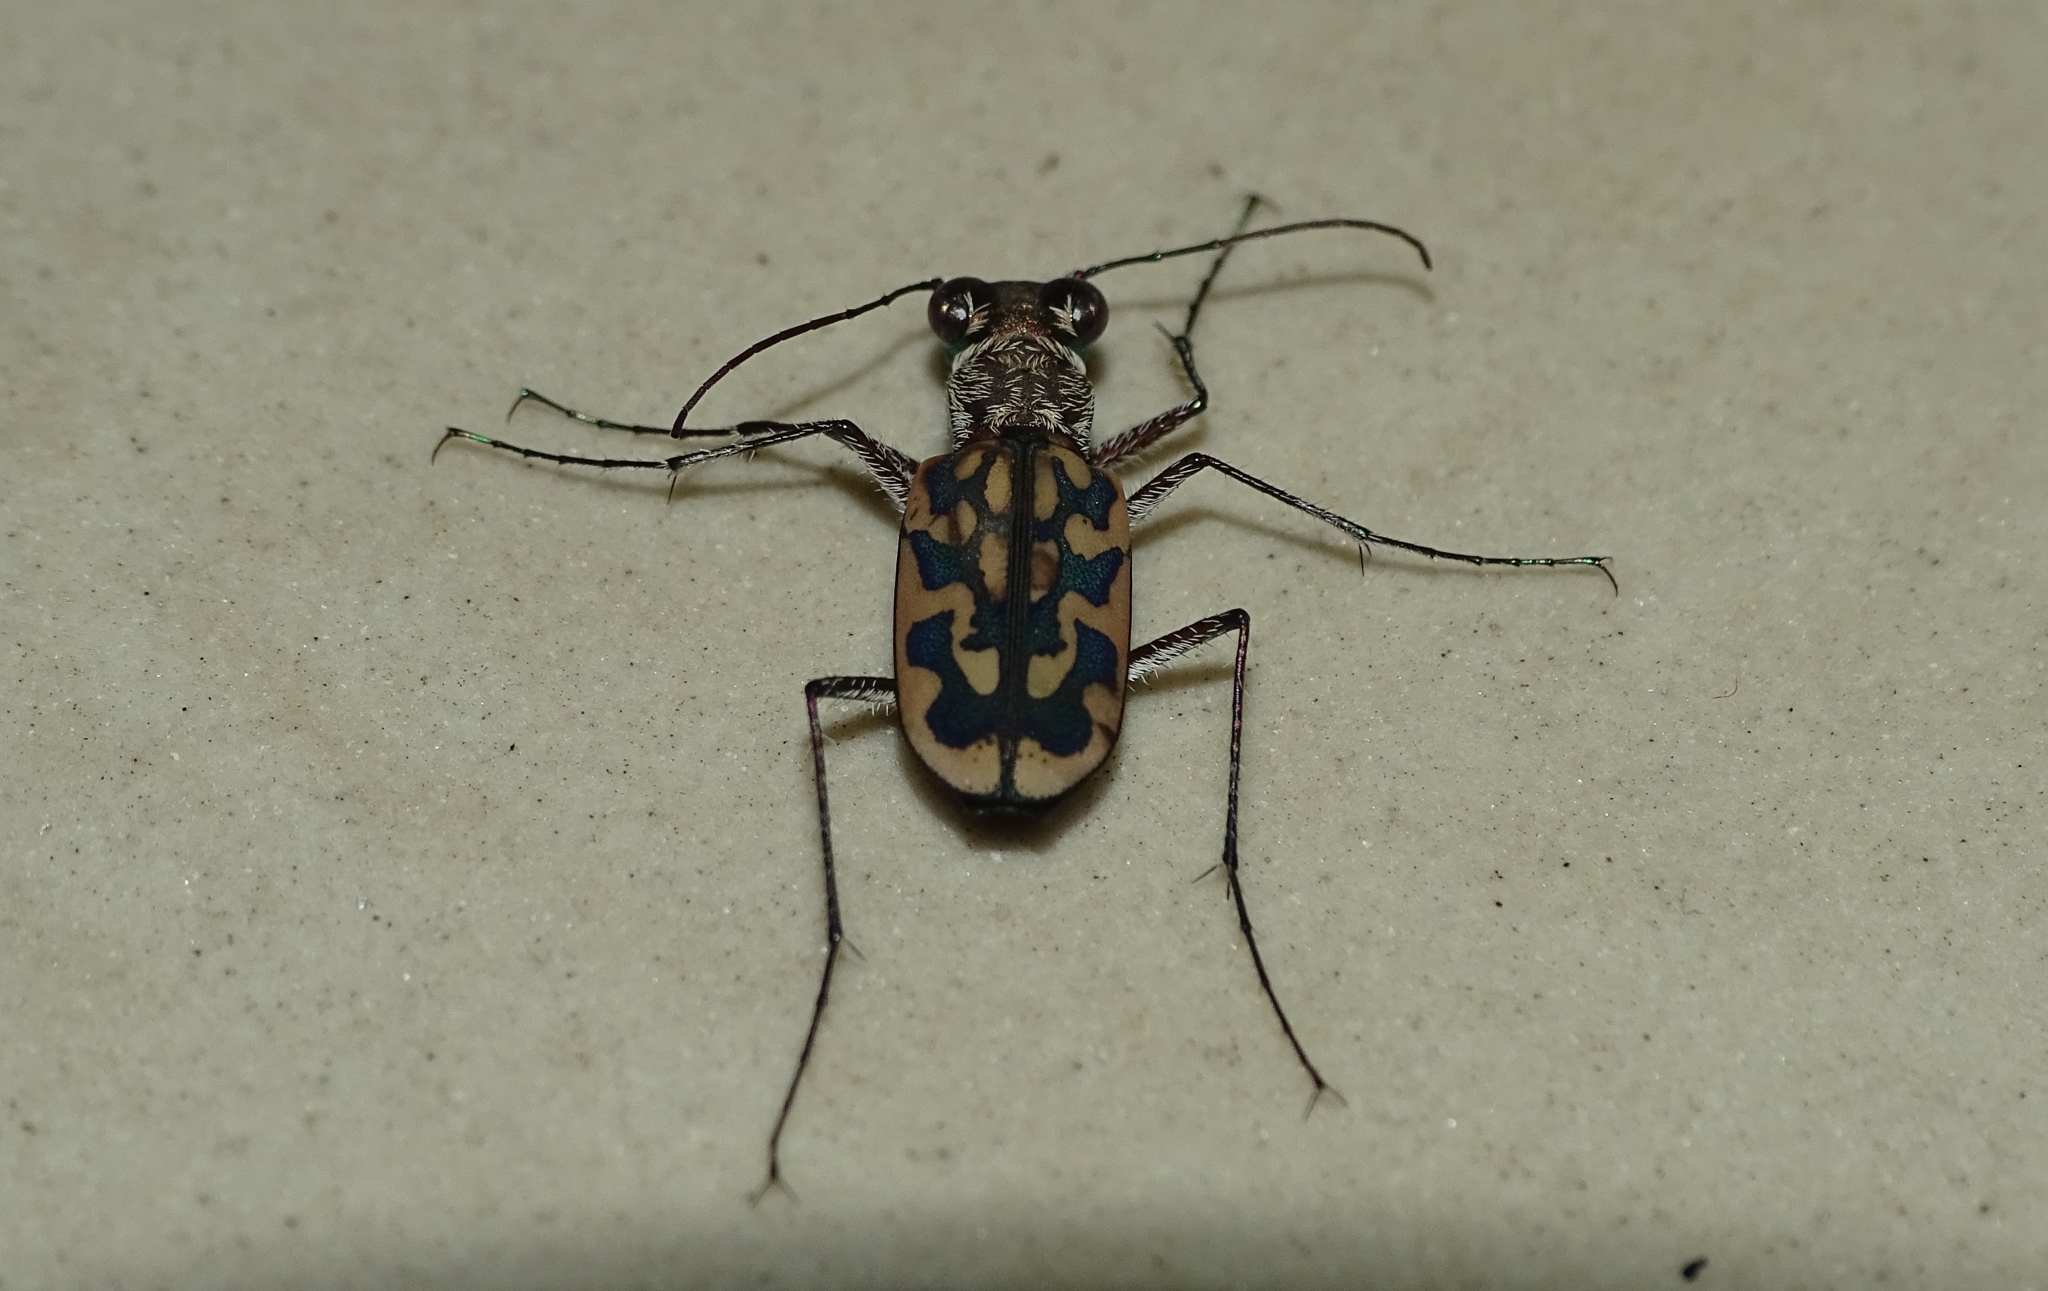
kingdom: Animalia
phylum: Arthropoda
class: Insecta
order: Coleoptera
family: Carabidae
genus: Lophyra
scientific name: Lophyra cancellata
